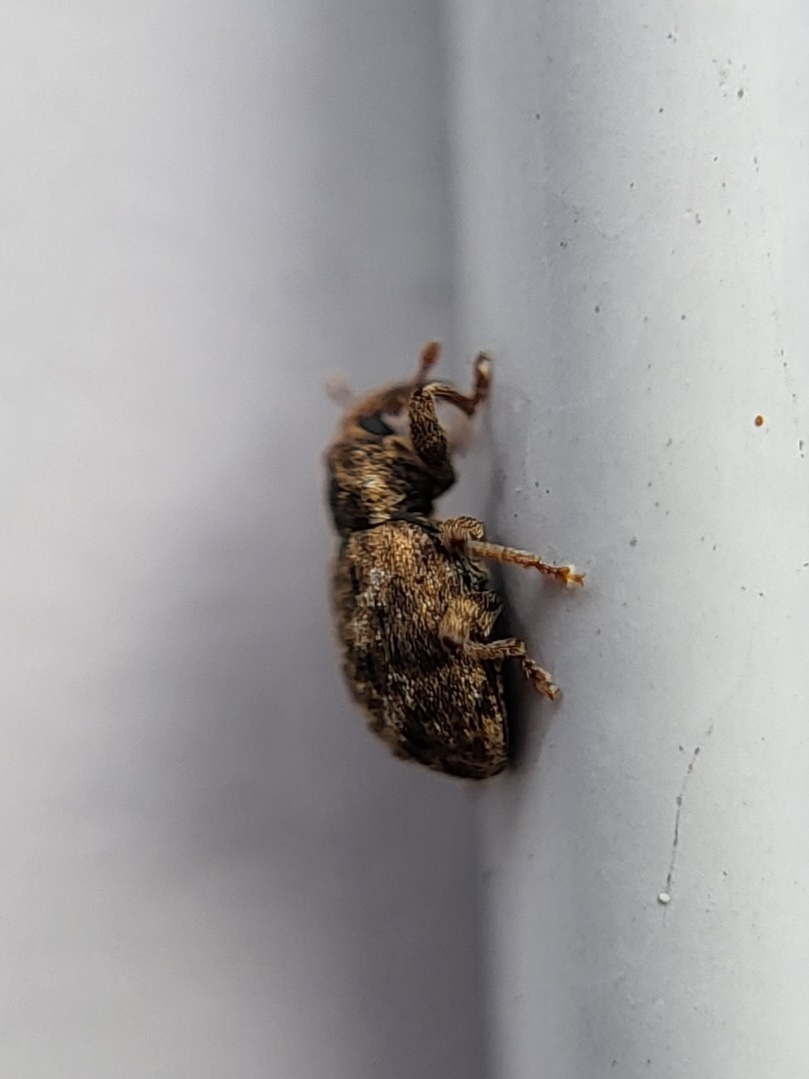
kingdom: Animalia
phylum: Arthropoda
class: Insecta
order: Coleoptera
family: Curculionidae
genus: Conotrachelus
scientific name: Conotrachelus recessus
